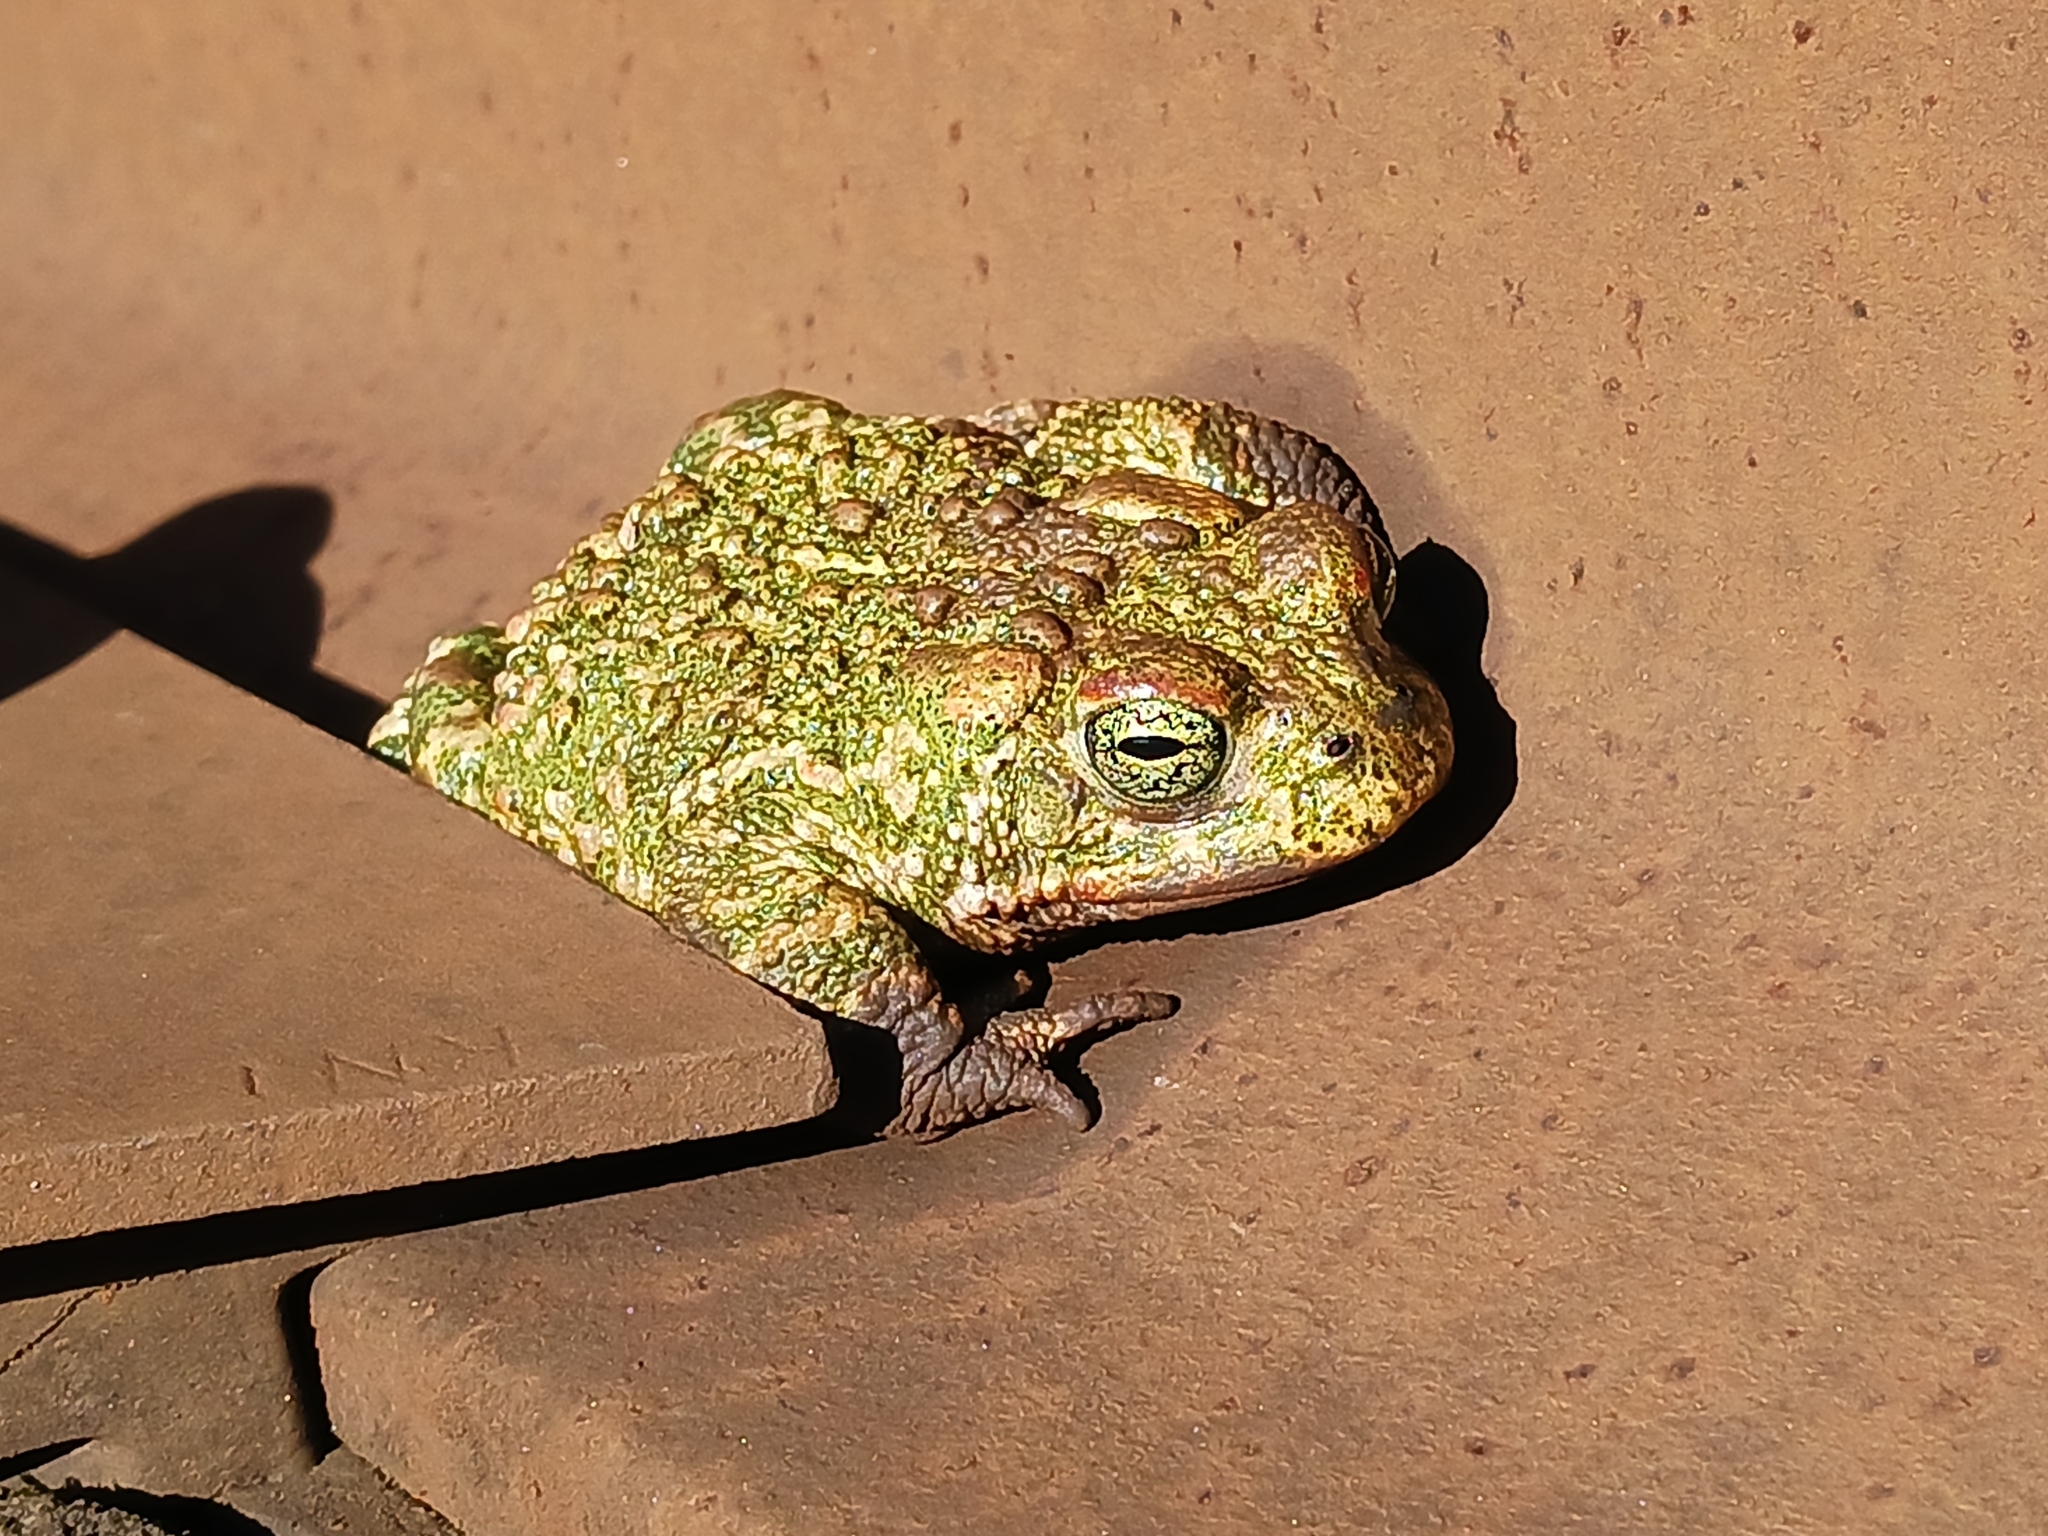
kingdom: Animalia
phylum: Chordata
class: Amphibia
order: Anura
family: Bufonidae
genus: Epidalea
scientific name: Epidalea calamita
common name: Natterjack toad
